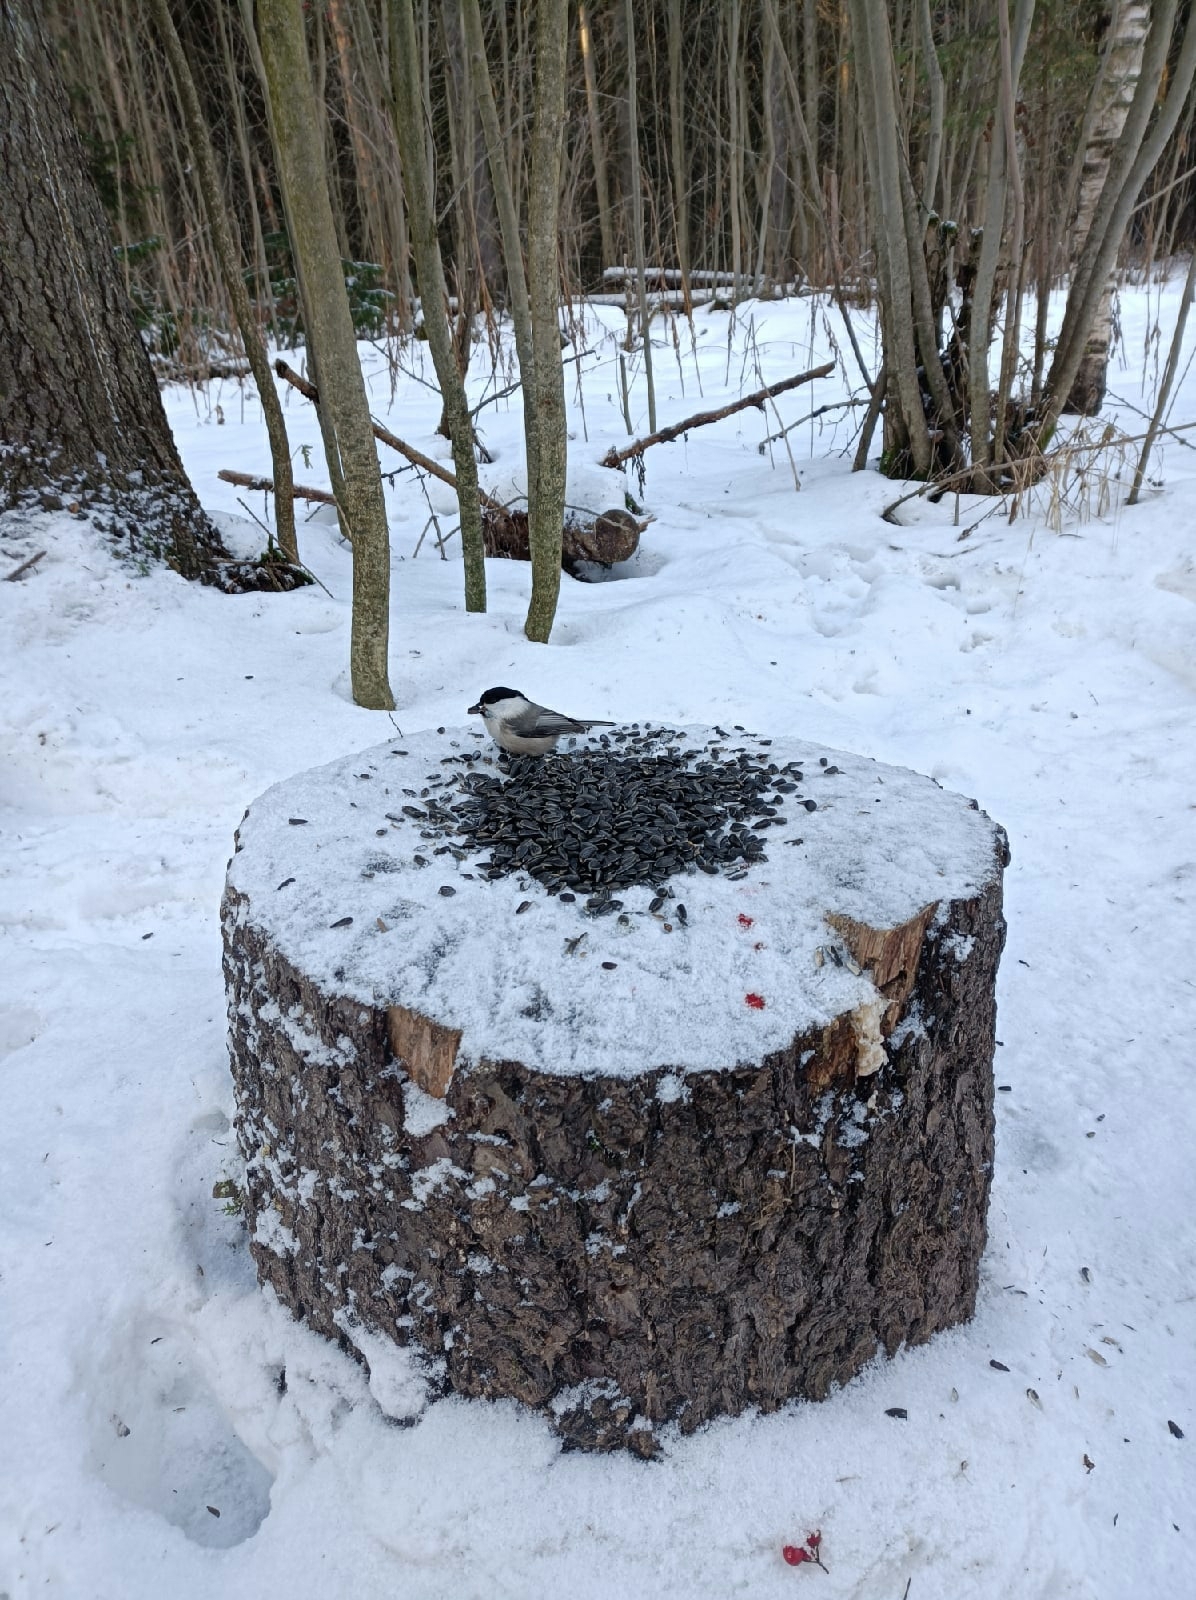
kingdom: Animalia
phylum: Chordata
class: Aves
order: Passeriformes
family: Paridae
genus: Poecile
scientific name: Poecile montanus
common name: Willow tit
